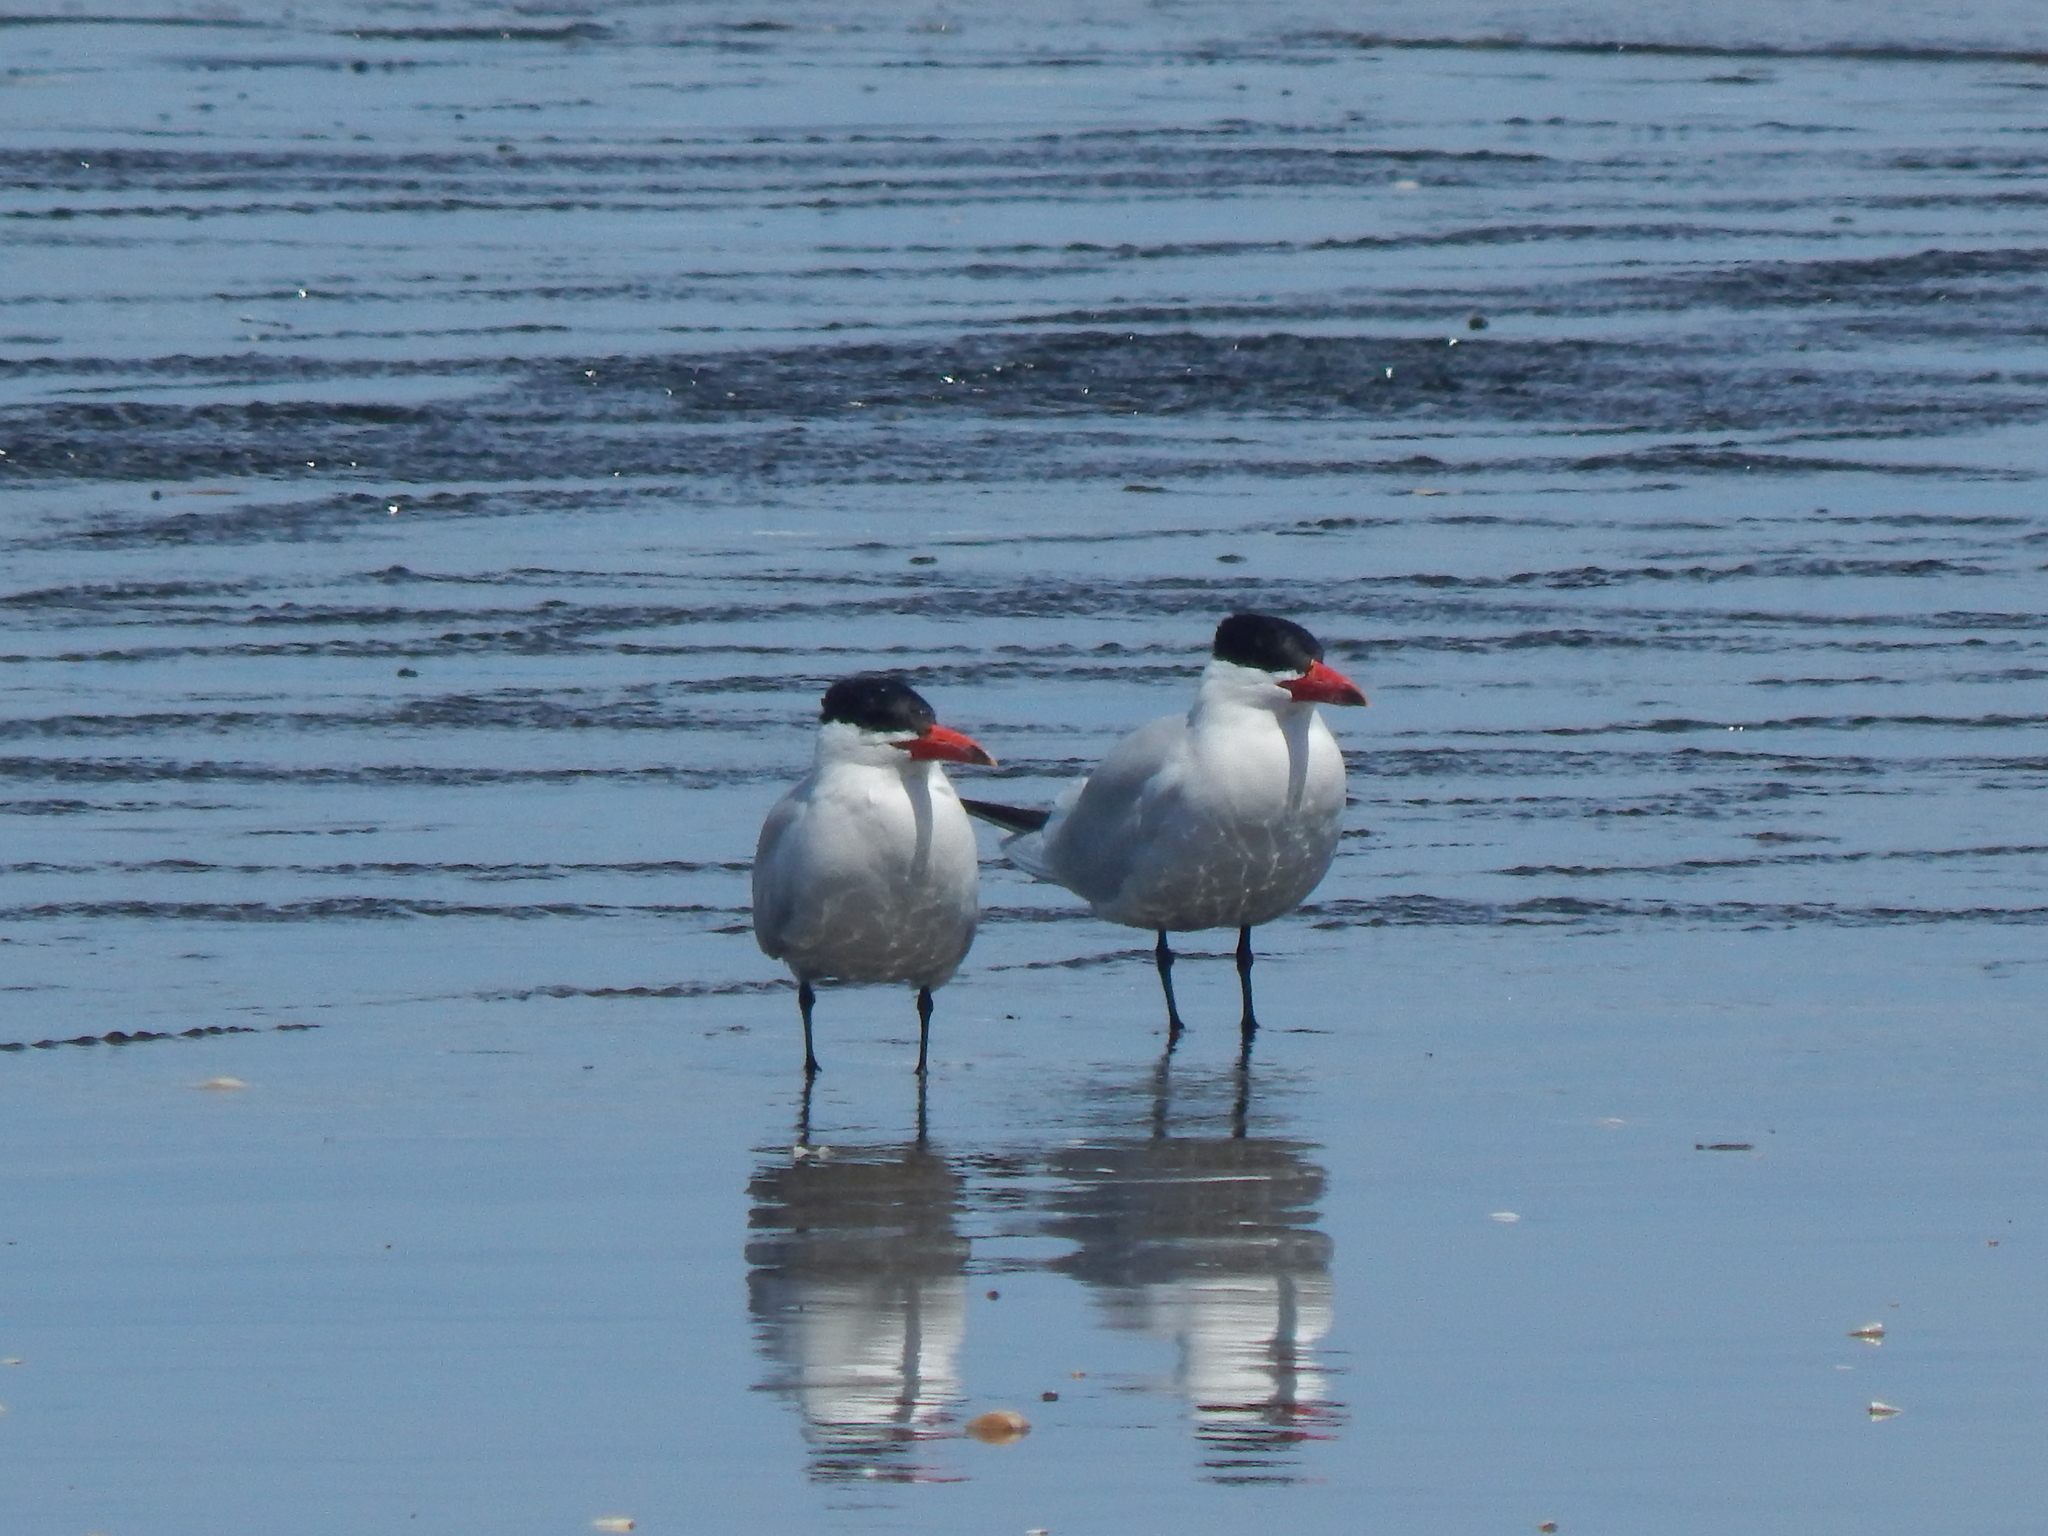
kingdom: Animalia
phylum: Chordata
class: Aves
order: Charadriiformes
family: Laridae
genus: Hydroprogne
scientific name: Hydroprogne caspia
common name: Caspian tern
